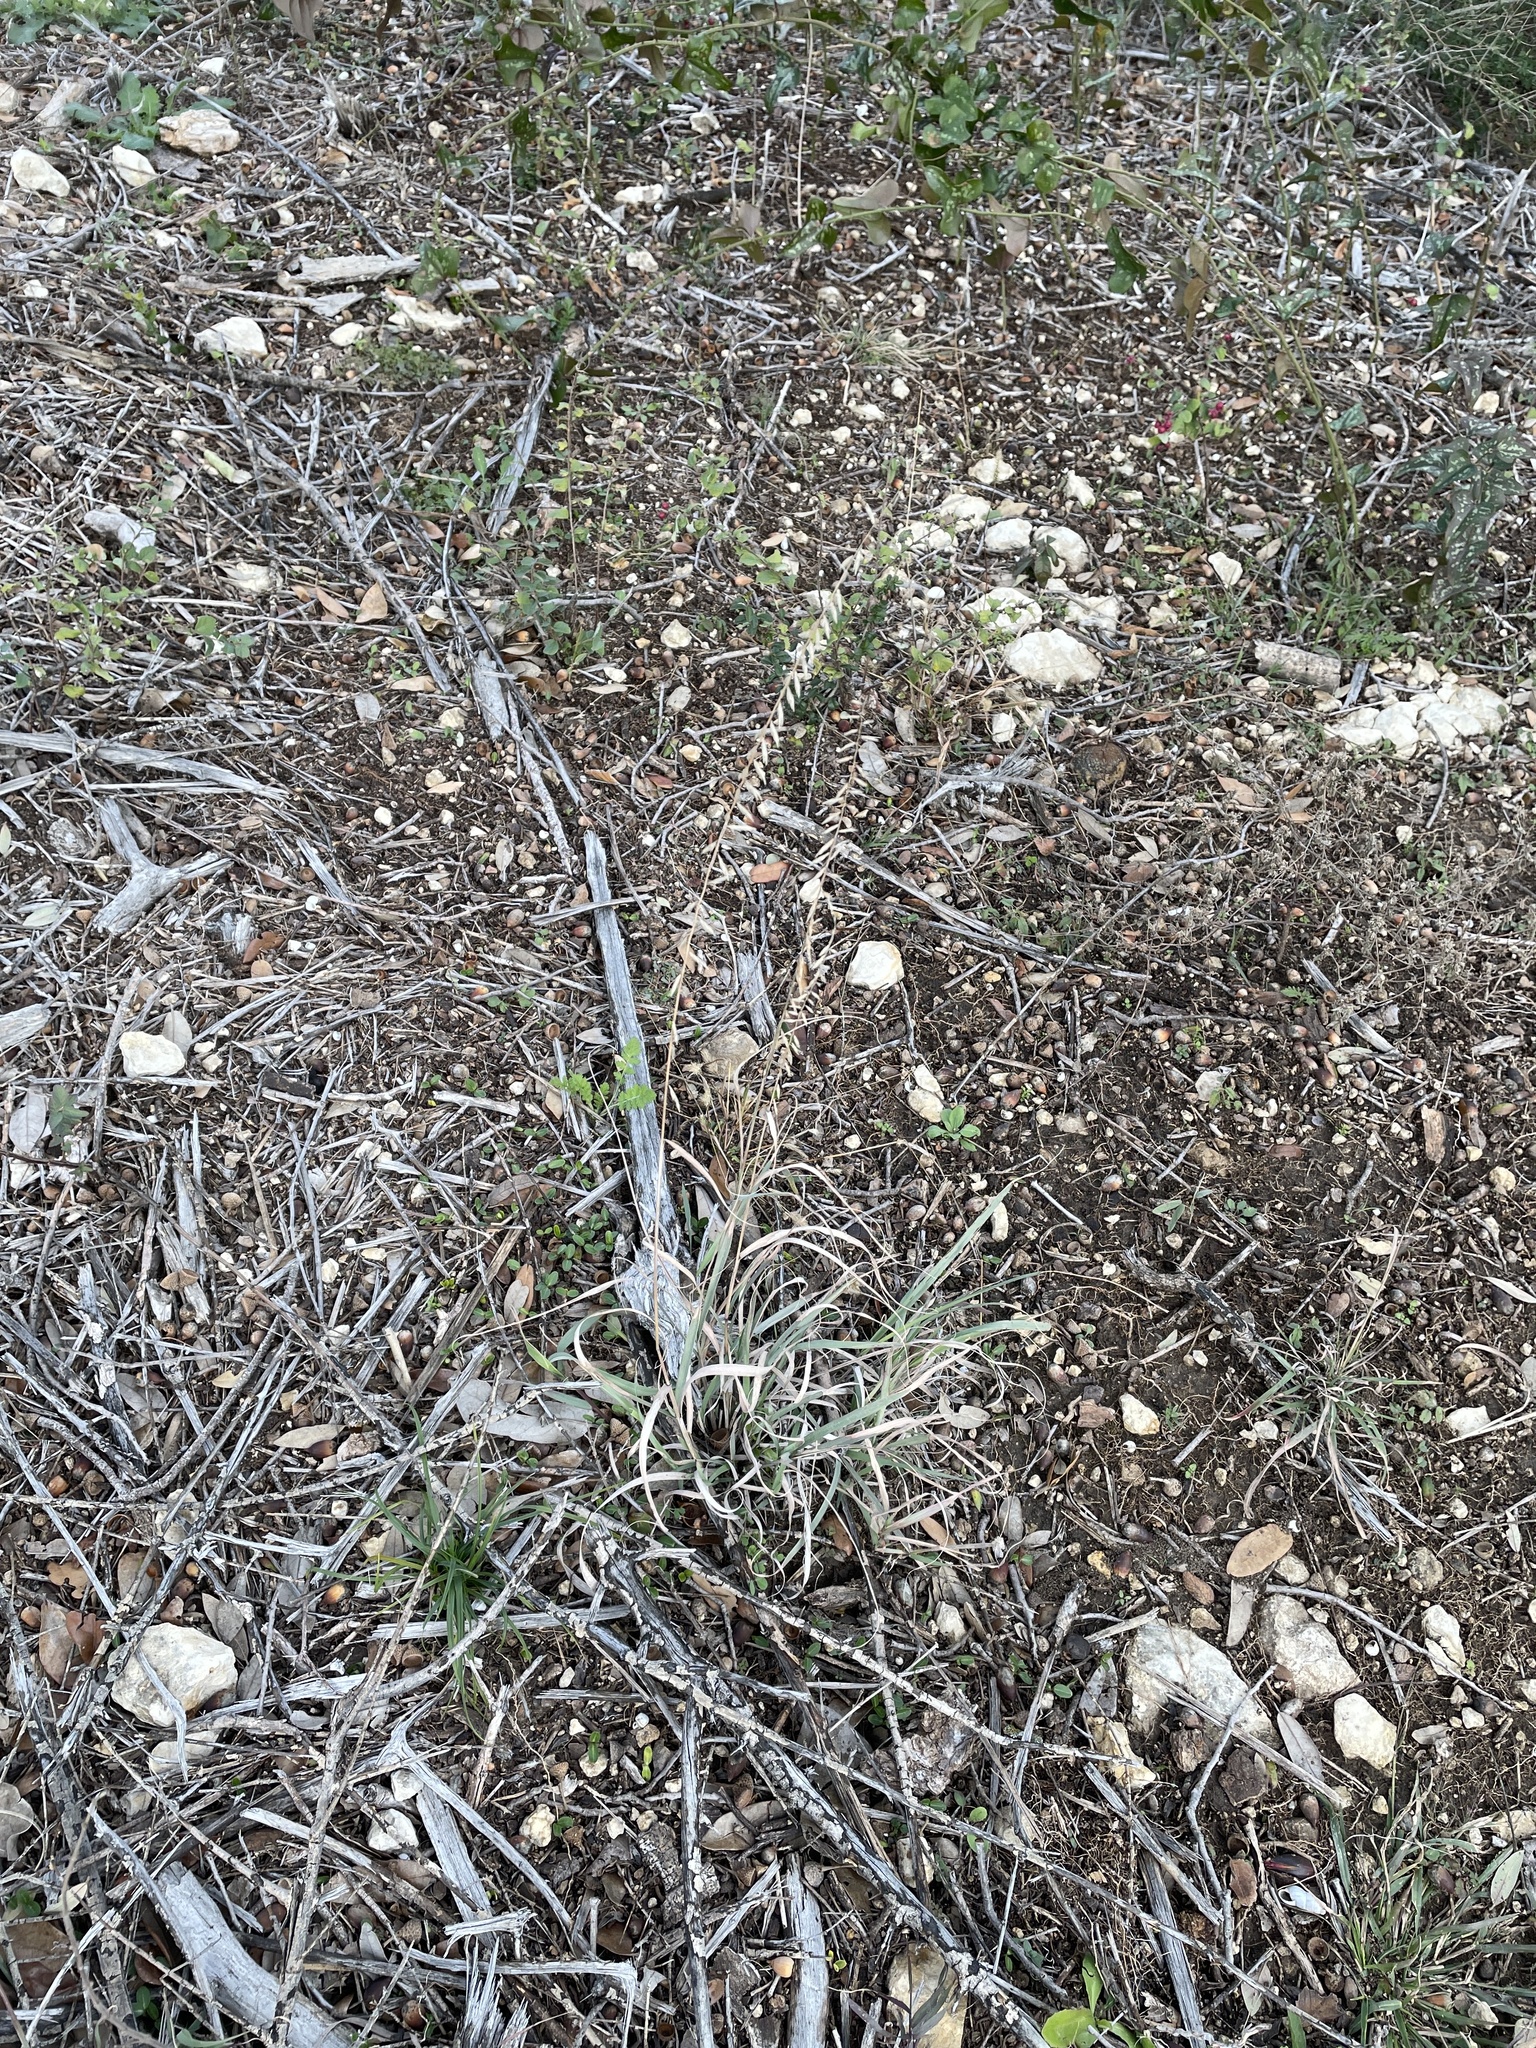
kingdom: Plantae
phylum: Tracheophyta
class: Liliopsida
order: Poales
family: Poaceae
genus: Bouteloua
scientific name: Bouteloua curtipendula
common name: Side-oats grama
